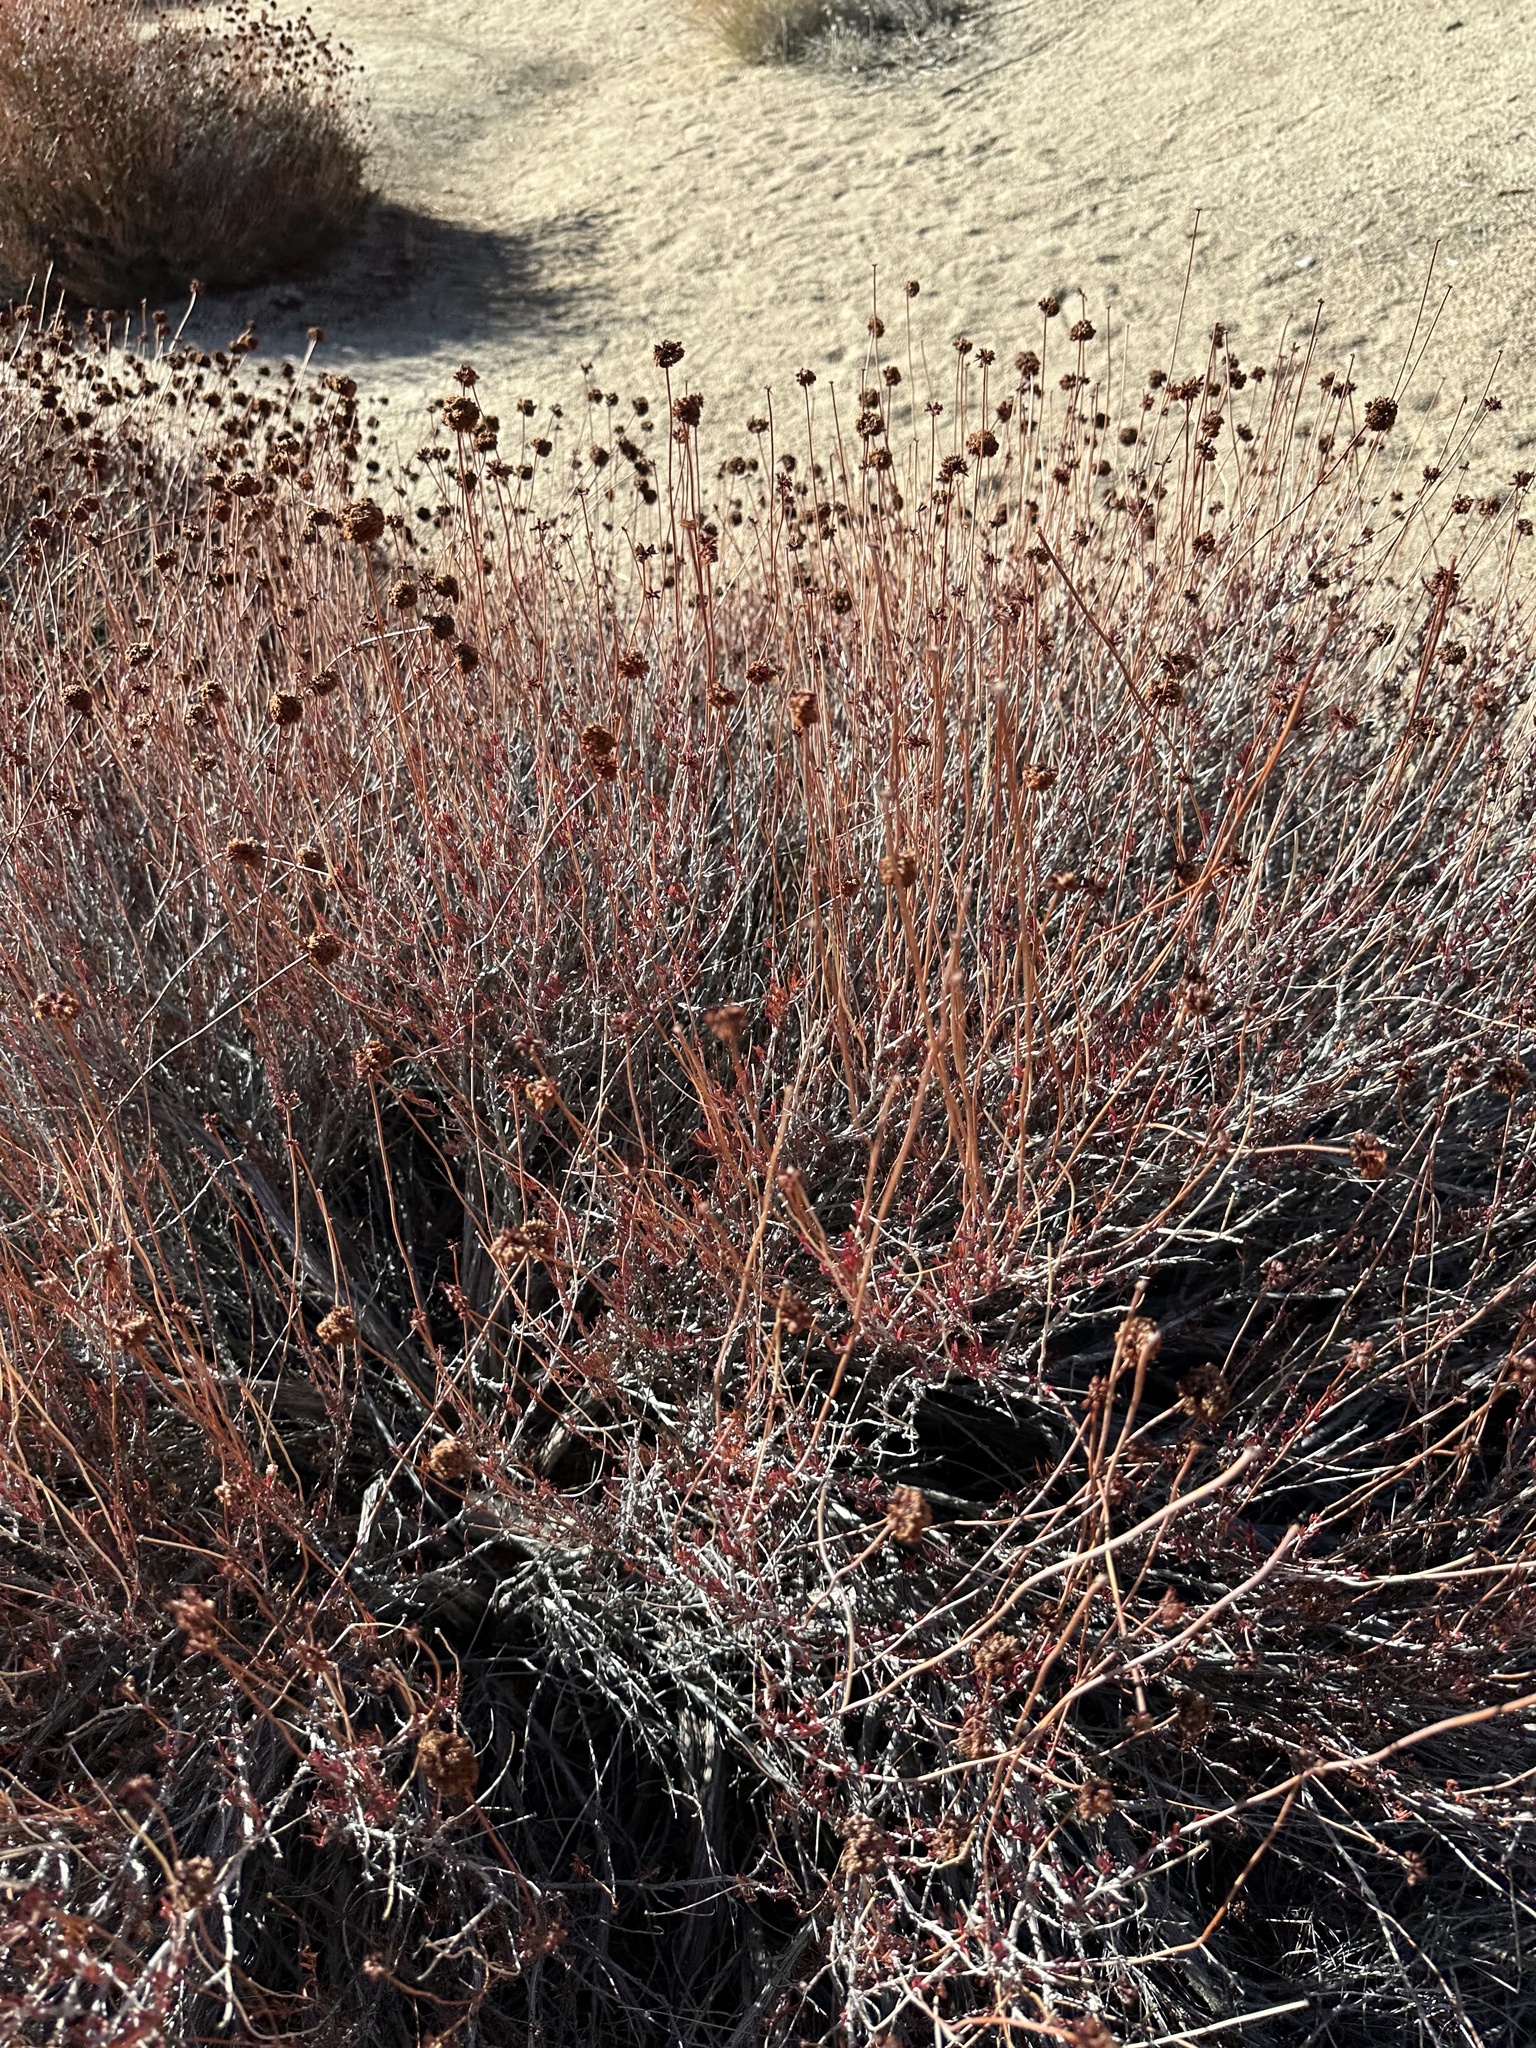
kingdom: Plantae
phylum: Tracheophyta
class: Magnoliopsida
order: Caryophyllales
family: Polygonaceae
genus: Eriogonum
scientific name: Eriogonum fasciculatum
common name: California wild buckwheat
